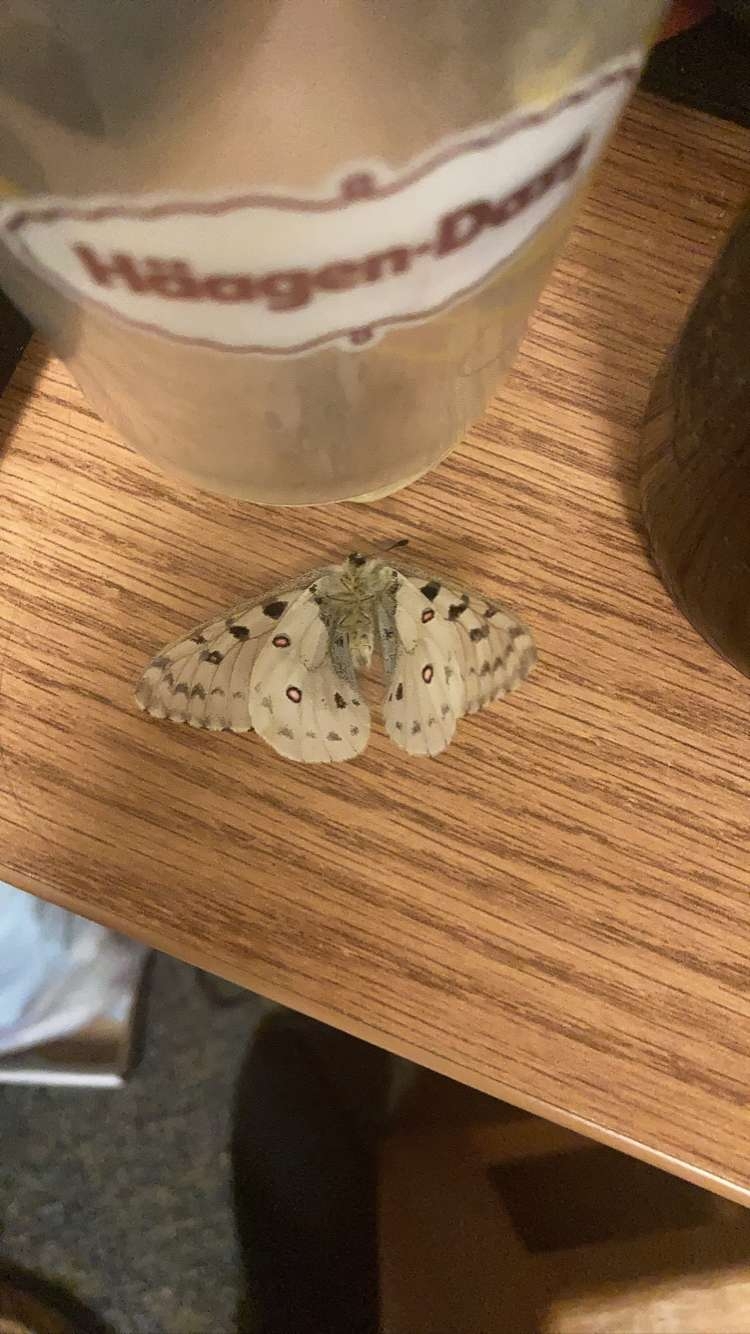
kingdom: Animalia
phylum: Arthropoda
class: Insecta
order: Lepidoptera
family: Papilionidae
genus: Parnassius
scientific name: Parnassius smintheus
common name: Mountain parnassian
